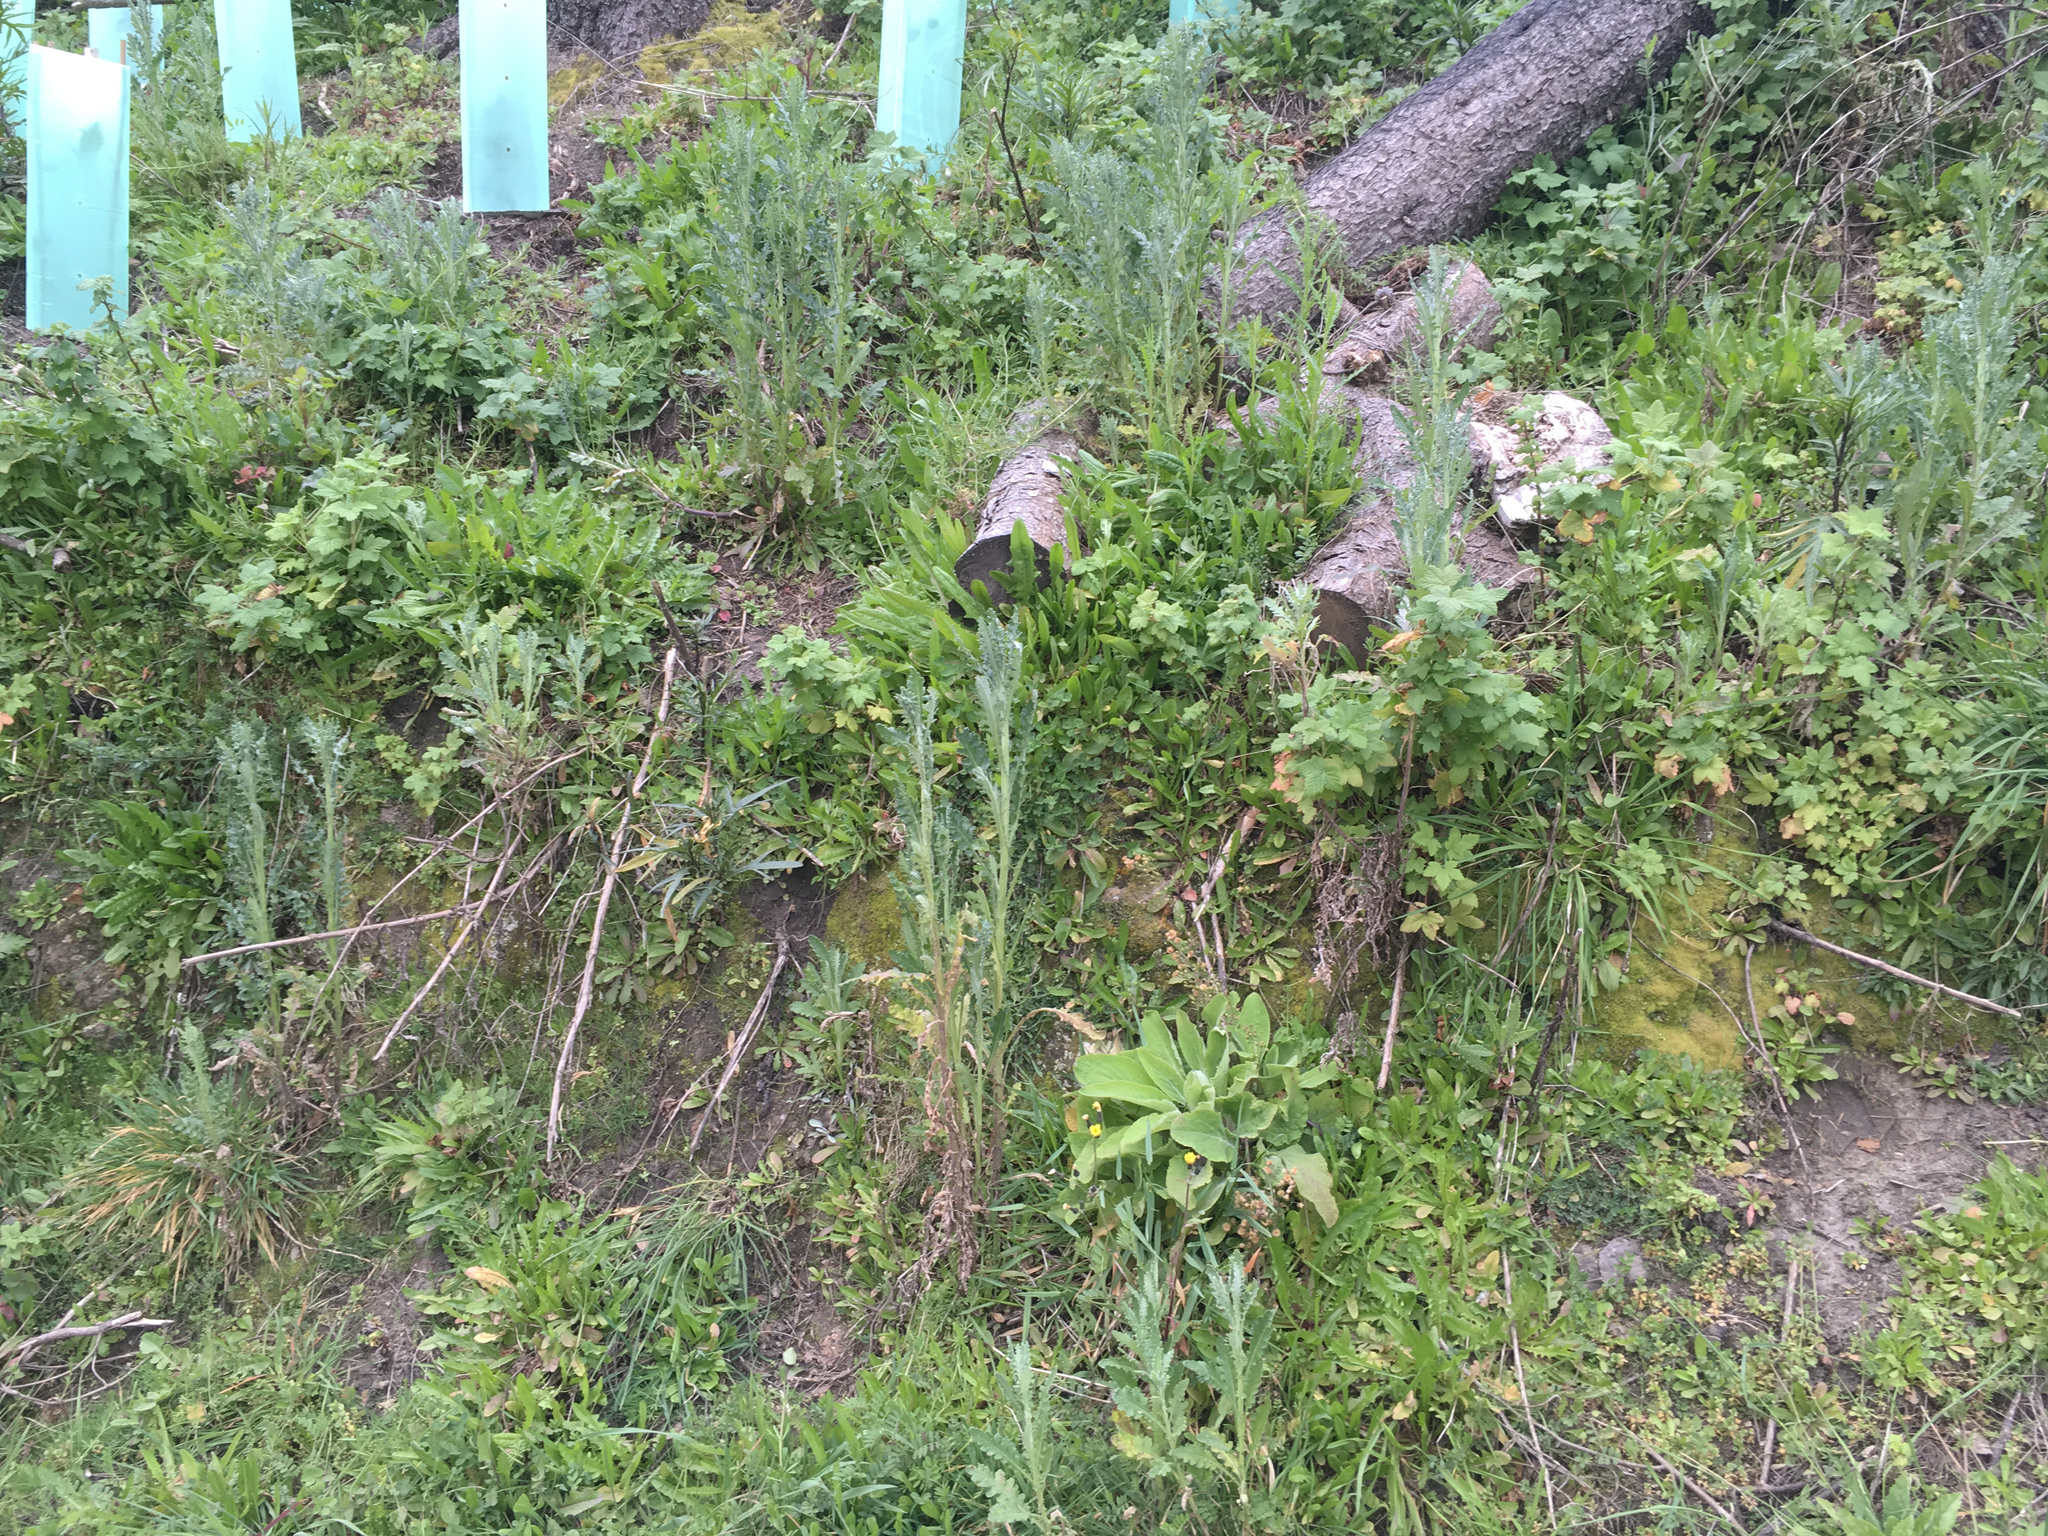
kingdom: Plantae
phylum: Tracheophyta
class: Magnoliopsida
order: Asterales
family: Asteraceae
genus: Senecio
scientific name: Senecio glomeratus
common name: Cutleaf burnweed
